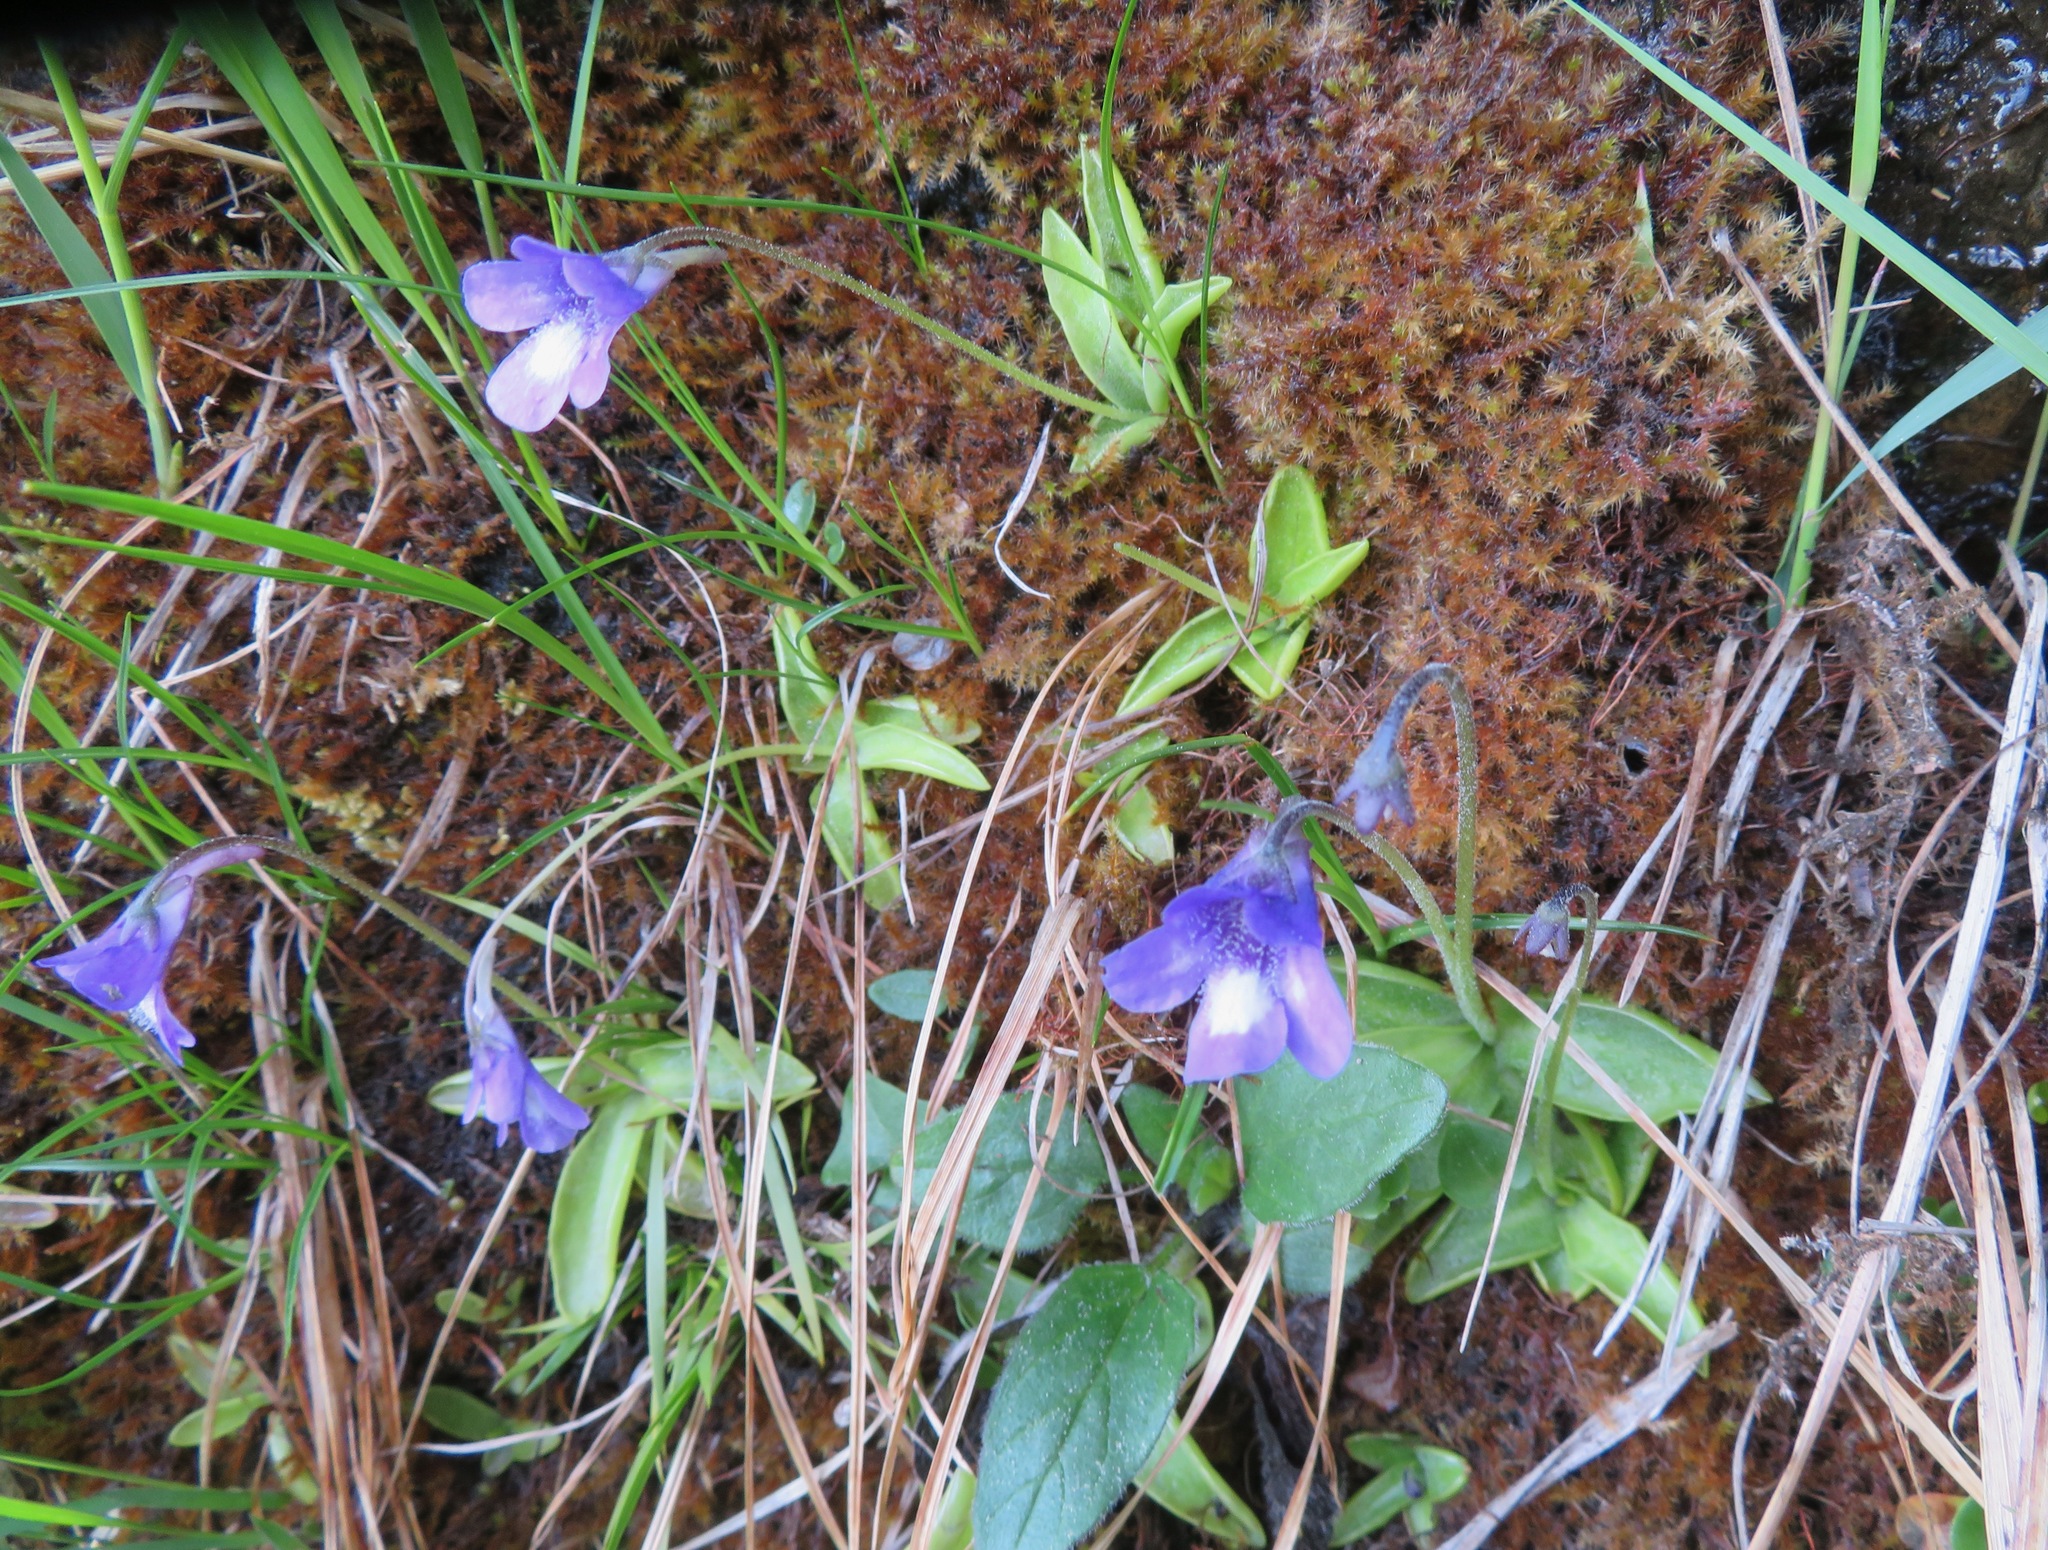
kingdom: Plantae
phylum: Tracheophyta
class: Magnoliopsida
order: Lamiales
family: Lentibulariaceae
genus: Pinguicula
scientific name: Pinguicula leptoceras
